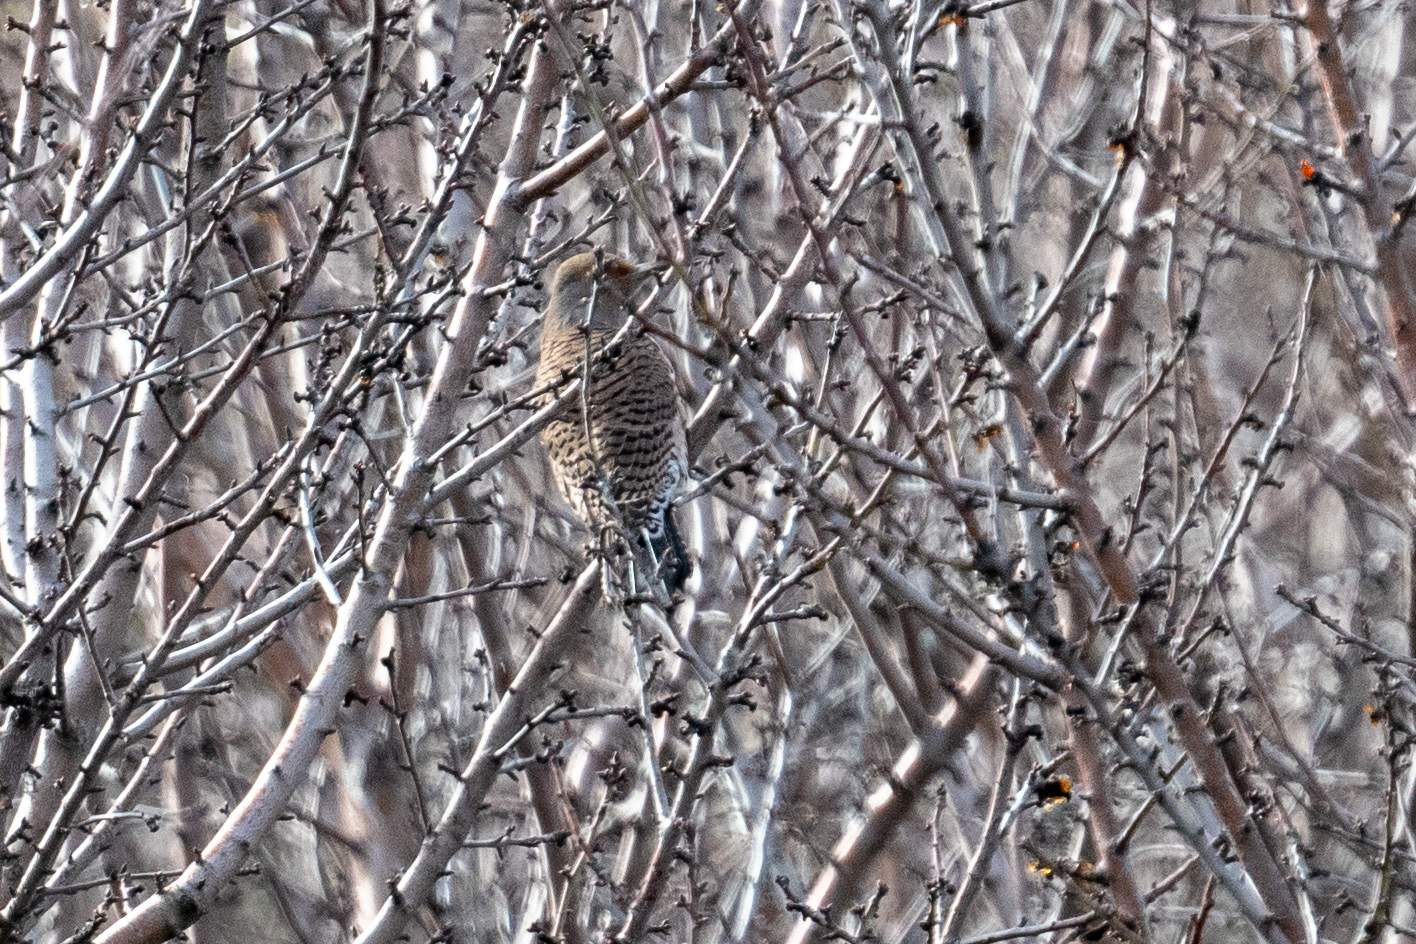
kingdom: Animalia
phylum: Chordata
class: Aves
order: Piciformes
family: Picidae
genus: Colaptes
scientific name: Colaptes auratus
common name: Northern flicker
